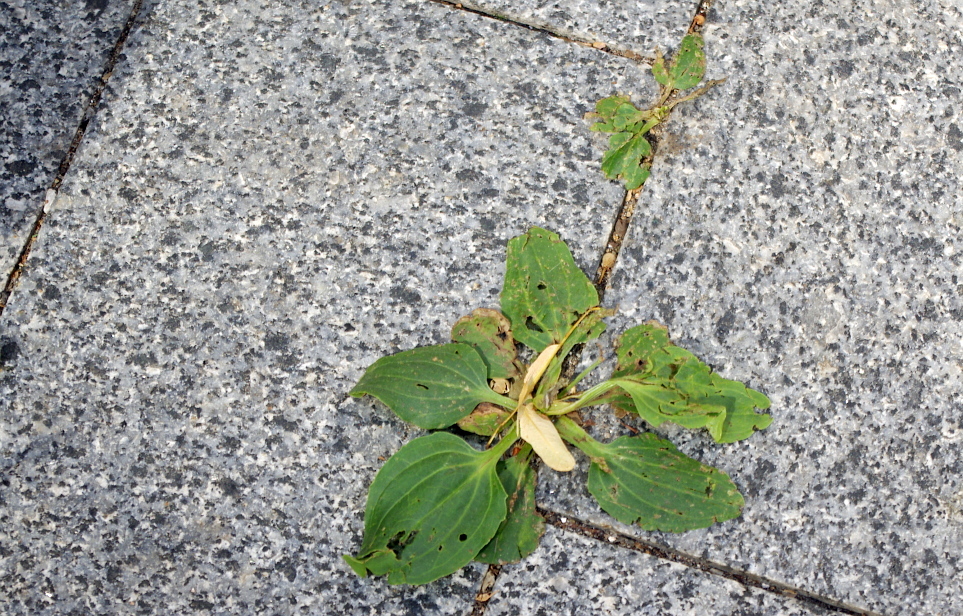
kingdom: Plantae
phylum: Tracheophyta
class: Magnoliopsida
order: Lamiales
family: Plantaginaceae
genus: Plantago
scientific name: Plantago major
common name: Common plantain
